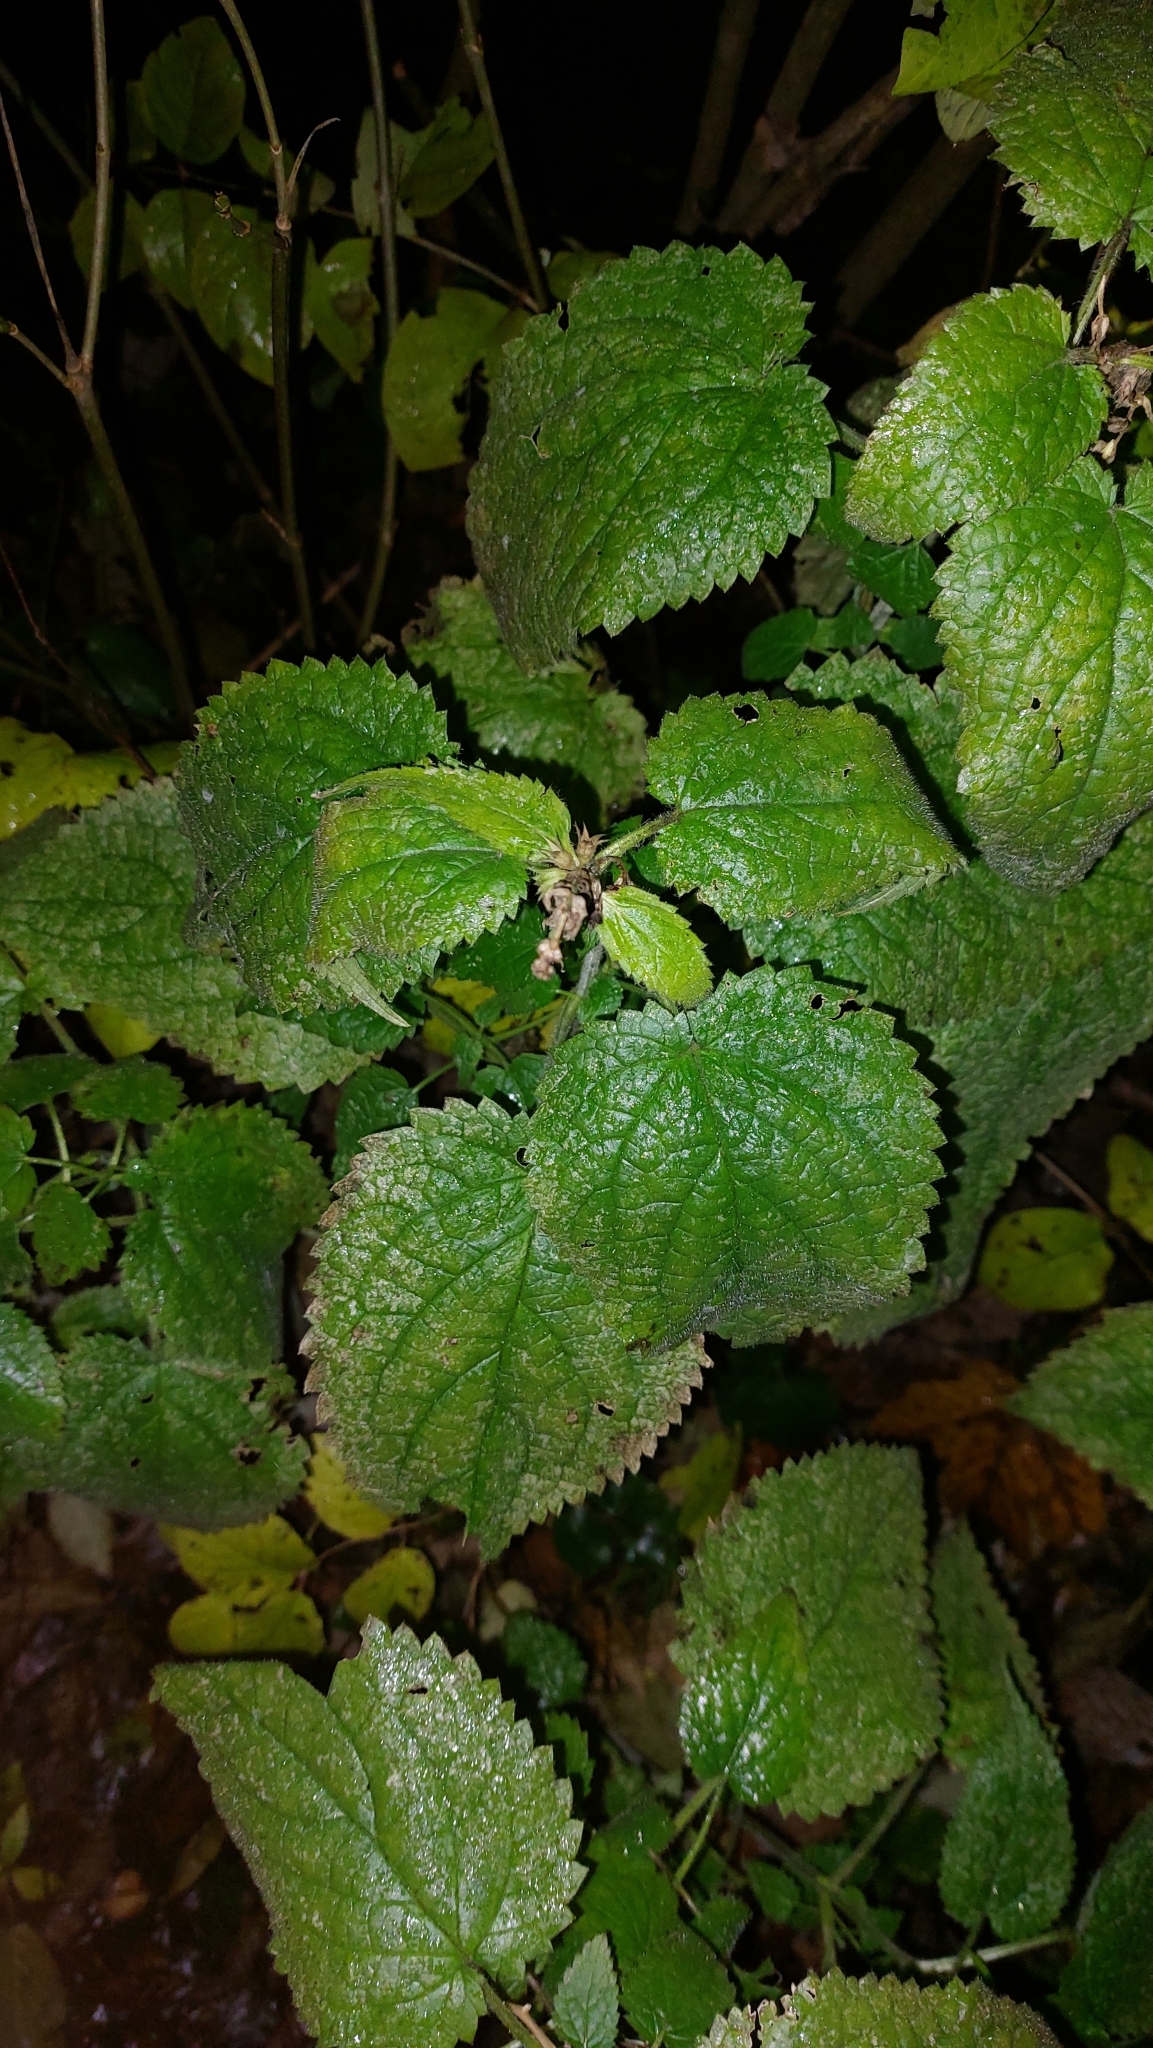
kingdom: Plantae
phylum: Tracheophyta
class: Magnoliopsida
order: Lamiales
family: Lamiaceae
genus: Stachys
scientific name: Stachys sylvatica
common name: Hedge woundwort
